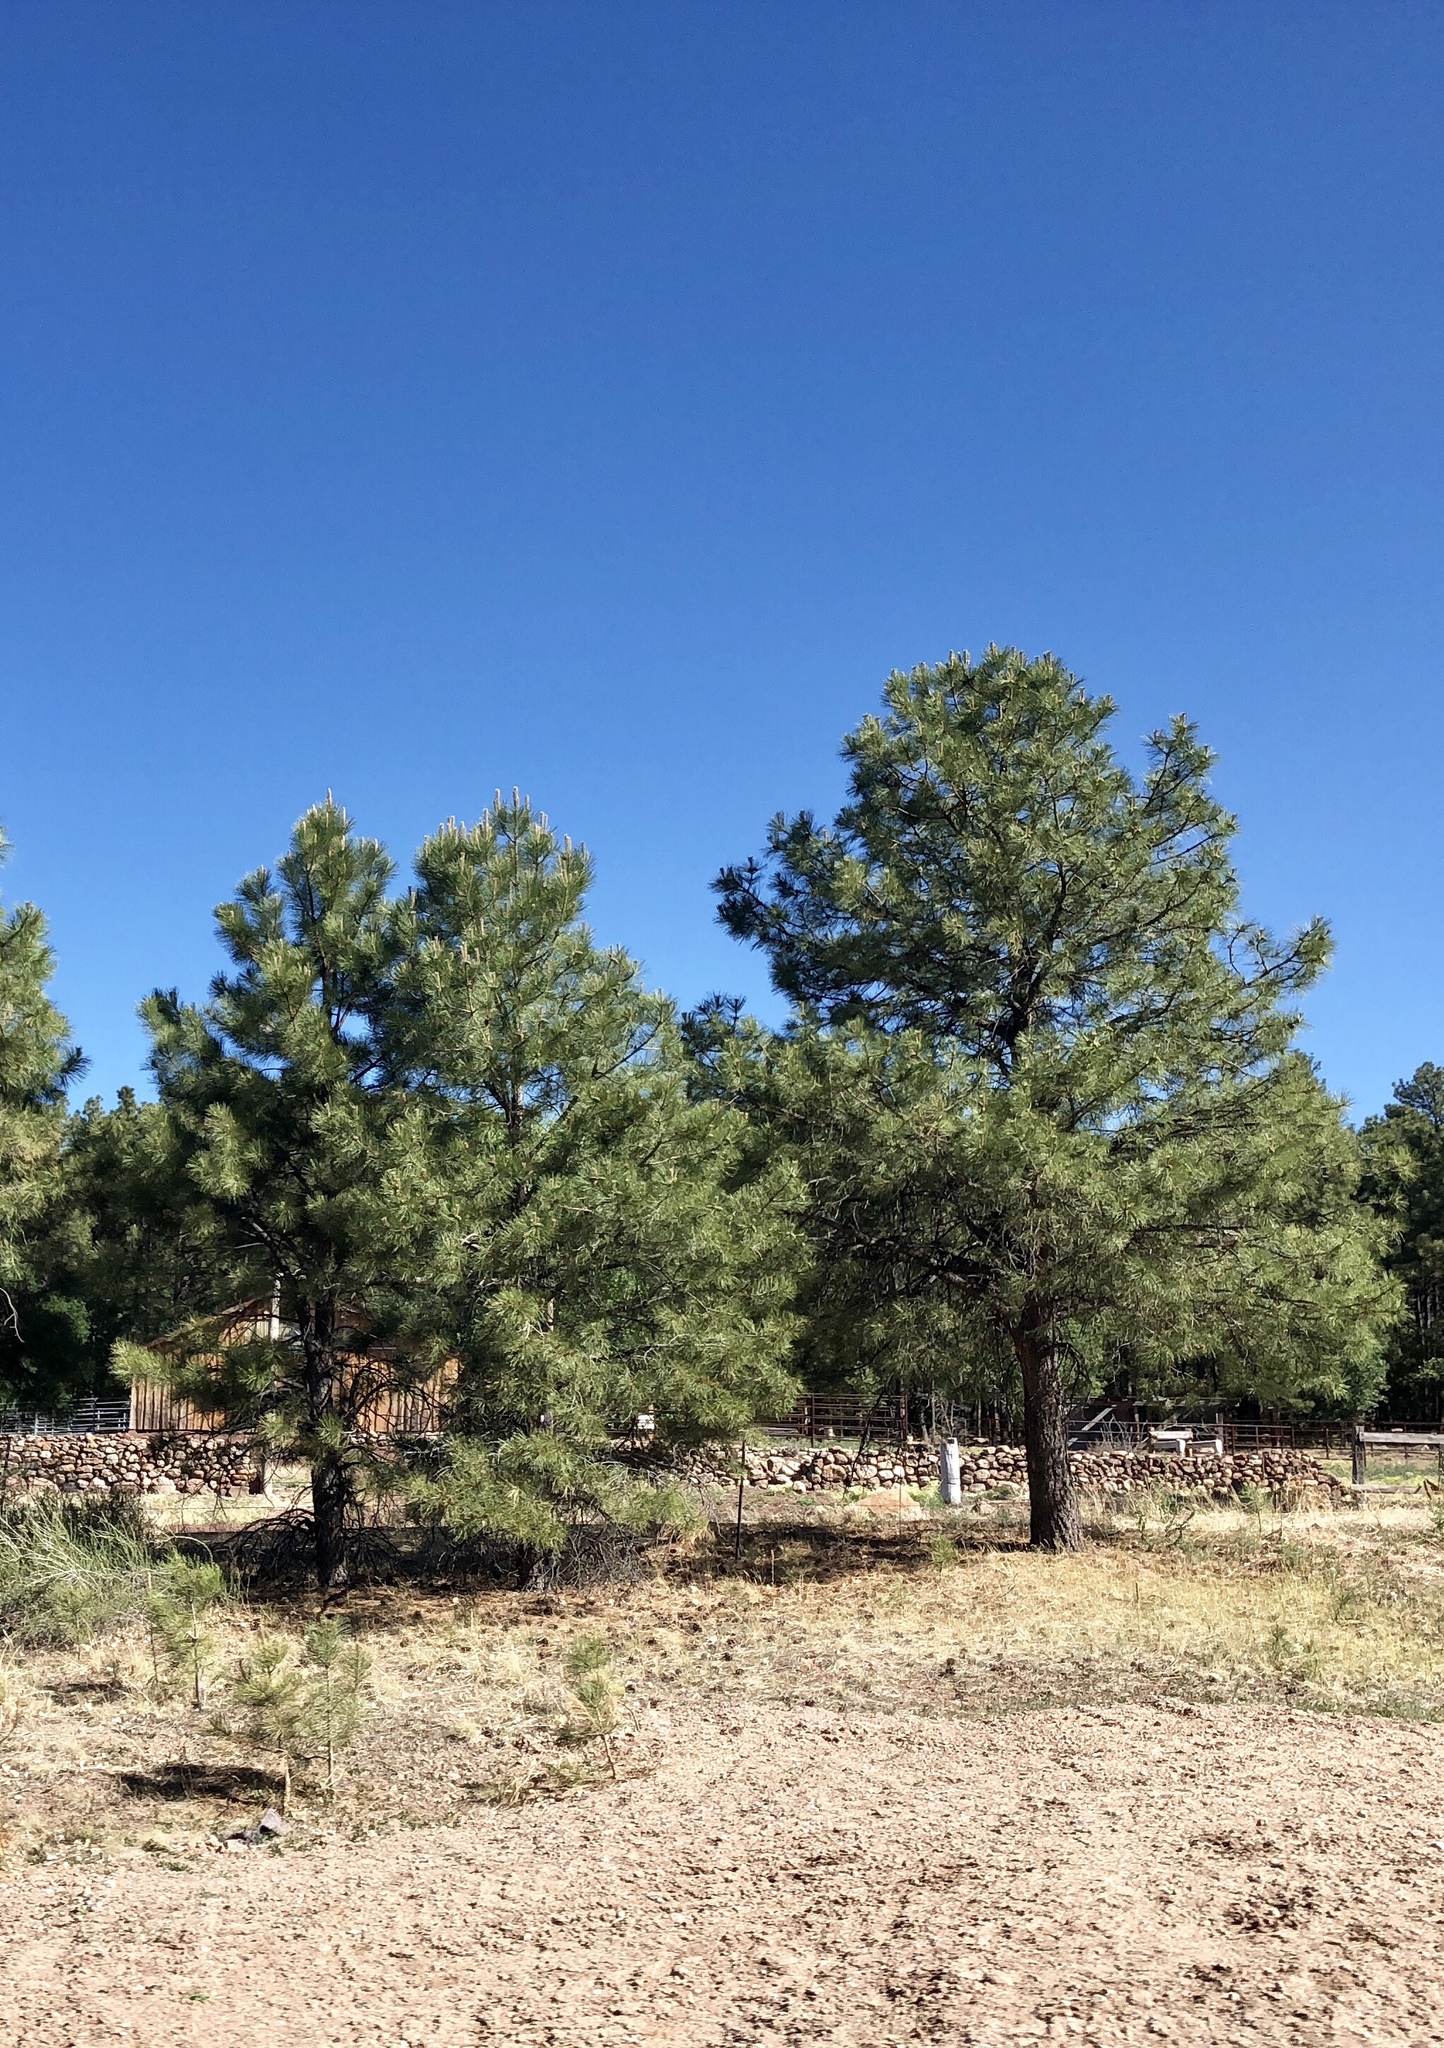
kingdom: Plantae
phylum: Tracheophyta
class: Pinopsida
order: Pinales
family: Pinaceae
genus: Pinus
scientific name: Pinus ponderosa
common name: Western yellow-pine
